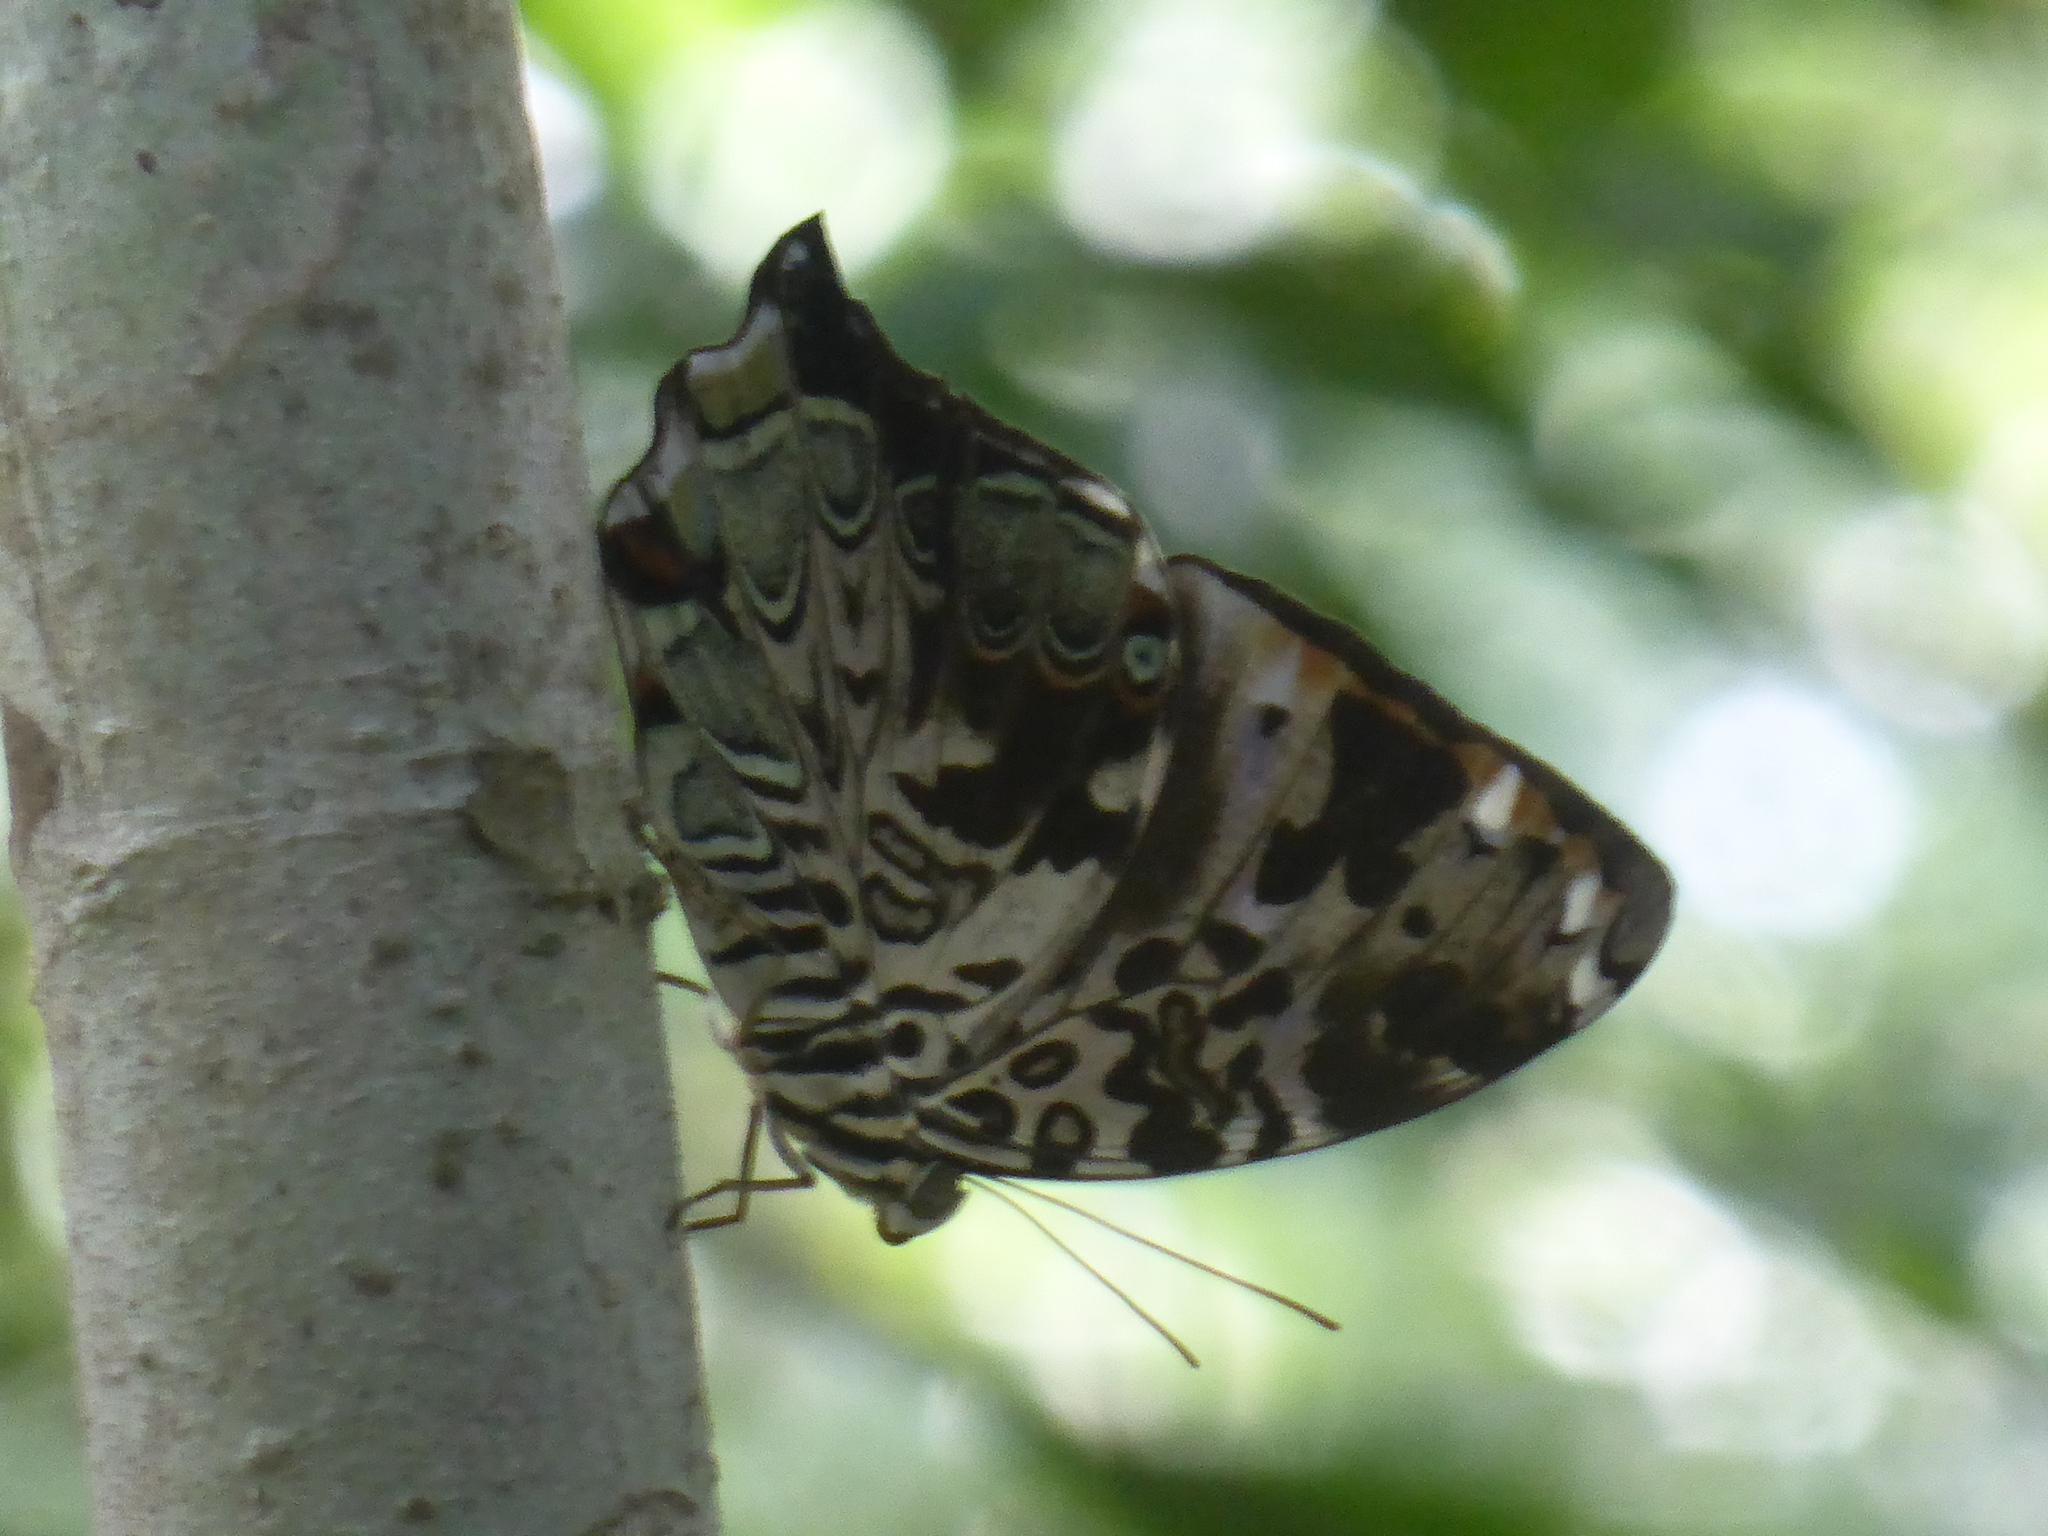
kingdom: Animalia
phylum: Arthropoda
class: Insecta
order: Lepidoptera
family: Nymphalidae
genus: Prothoe
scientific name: Prothoe franck
